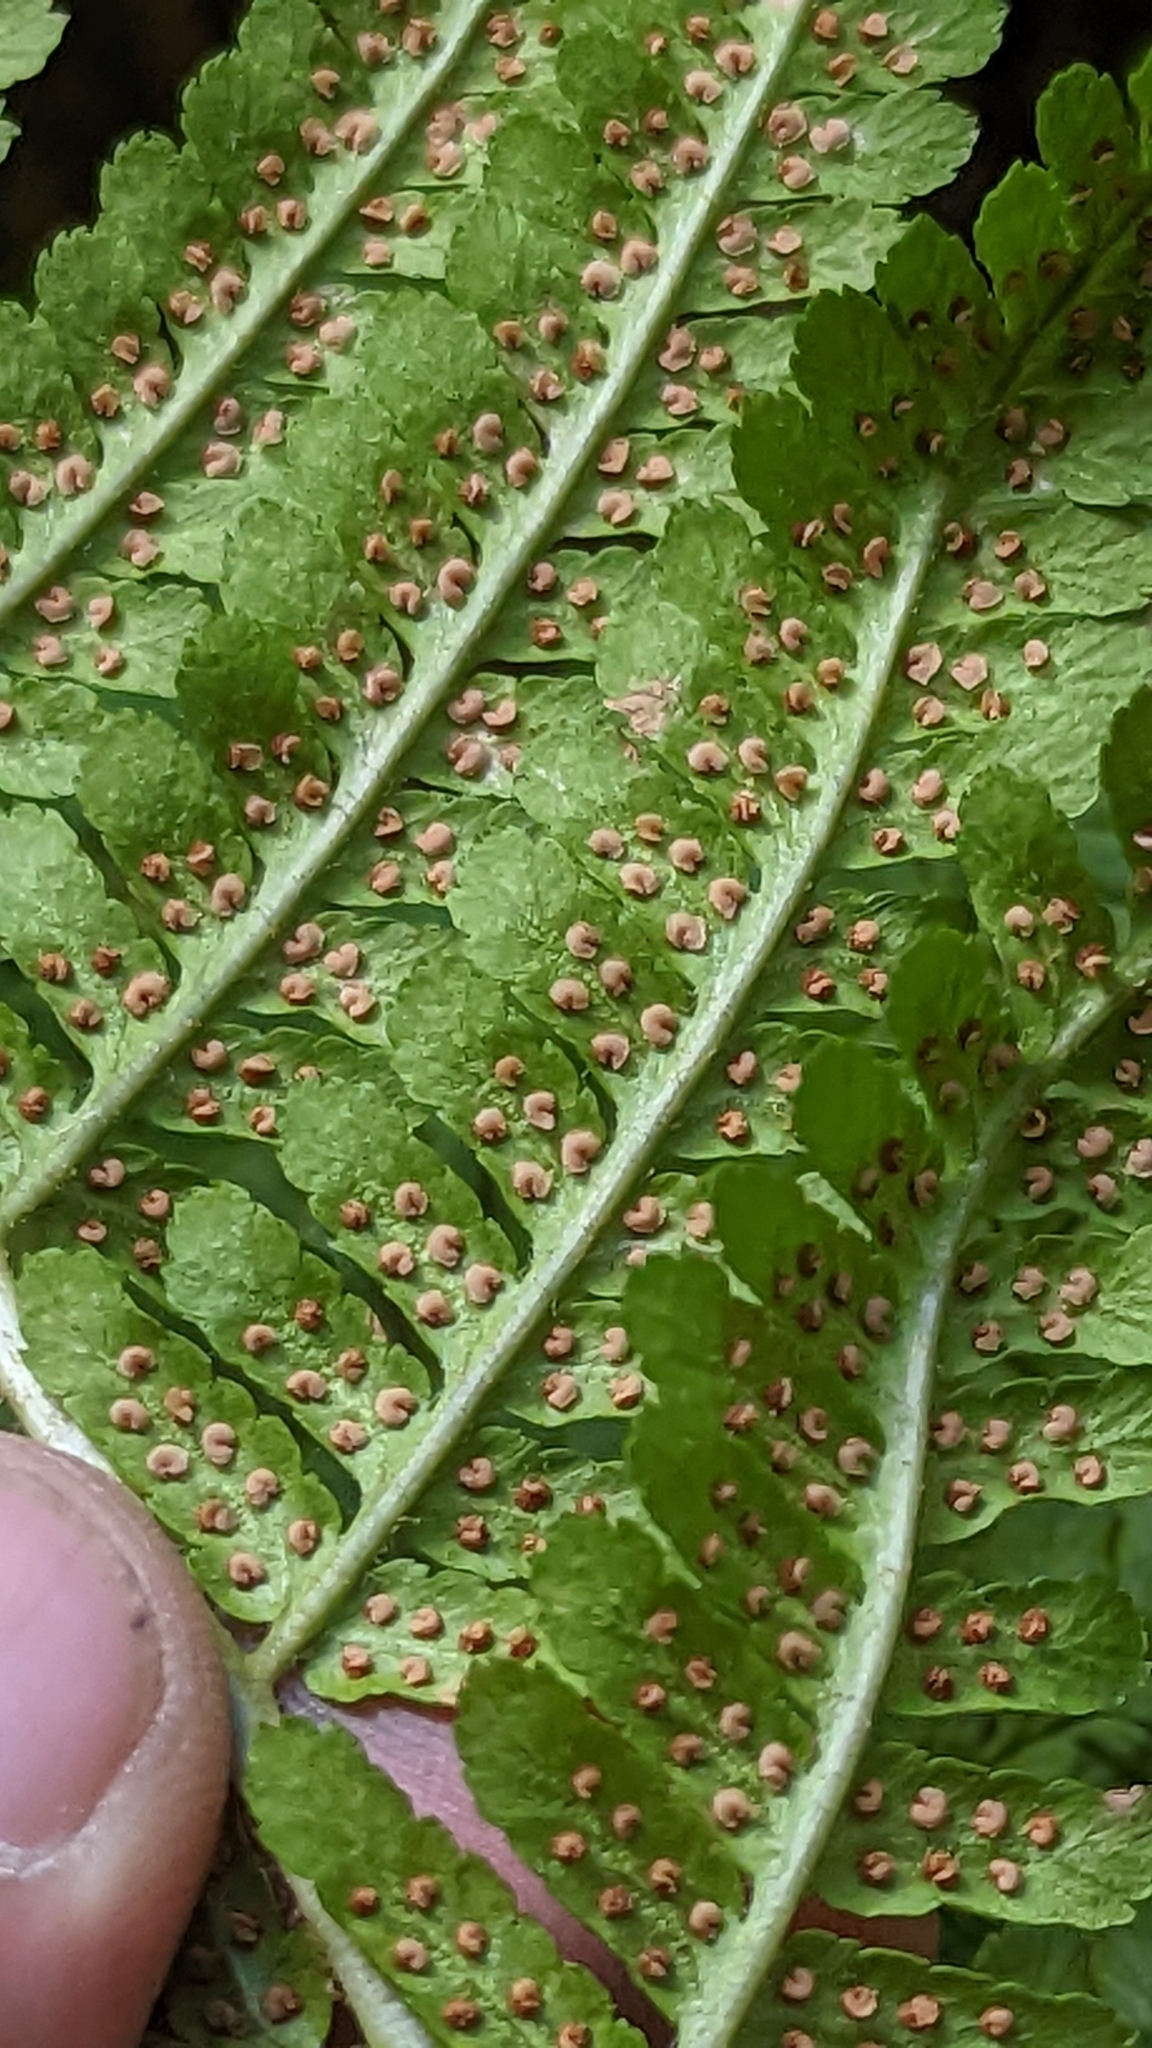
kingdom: Plantae
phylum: Tracheophyta
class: Polypodiopsida
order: Polypodiales
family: Dryopteridaceae
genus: Dryopteris
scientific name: Dryopteris filix-mas
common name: Male fern
